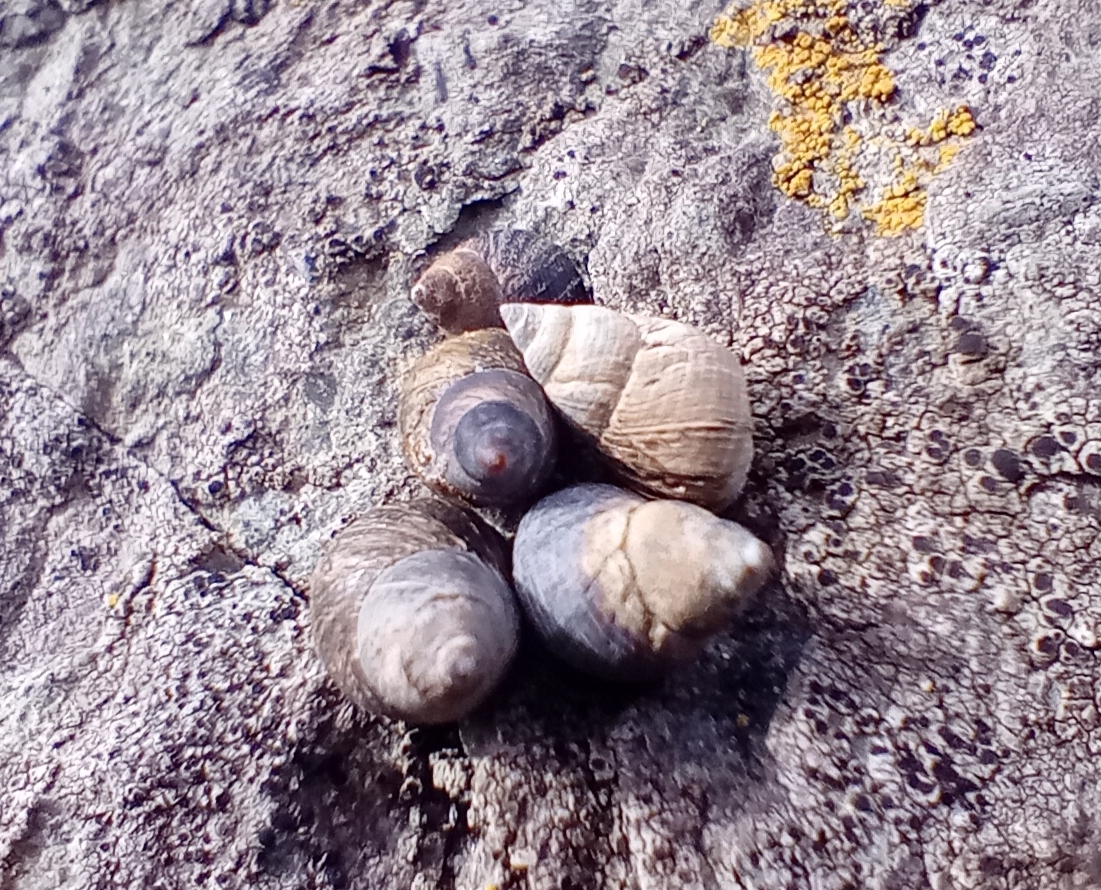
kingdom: Animalia
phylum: Mollusca
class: Gastropoda
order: Littorinimorpha
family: Littorinidae
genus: Austrolittorina
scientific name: Austrolittorina cincta
